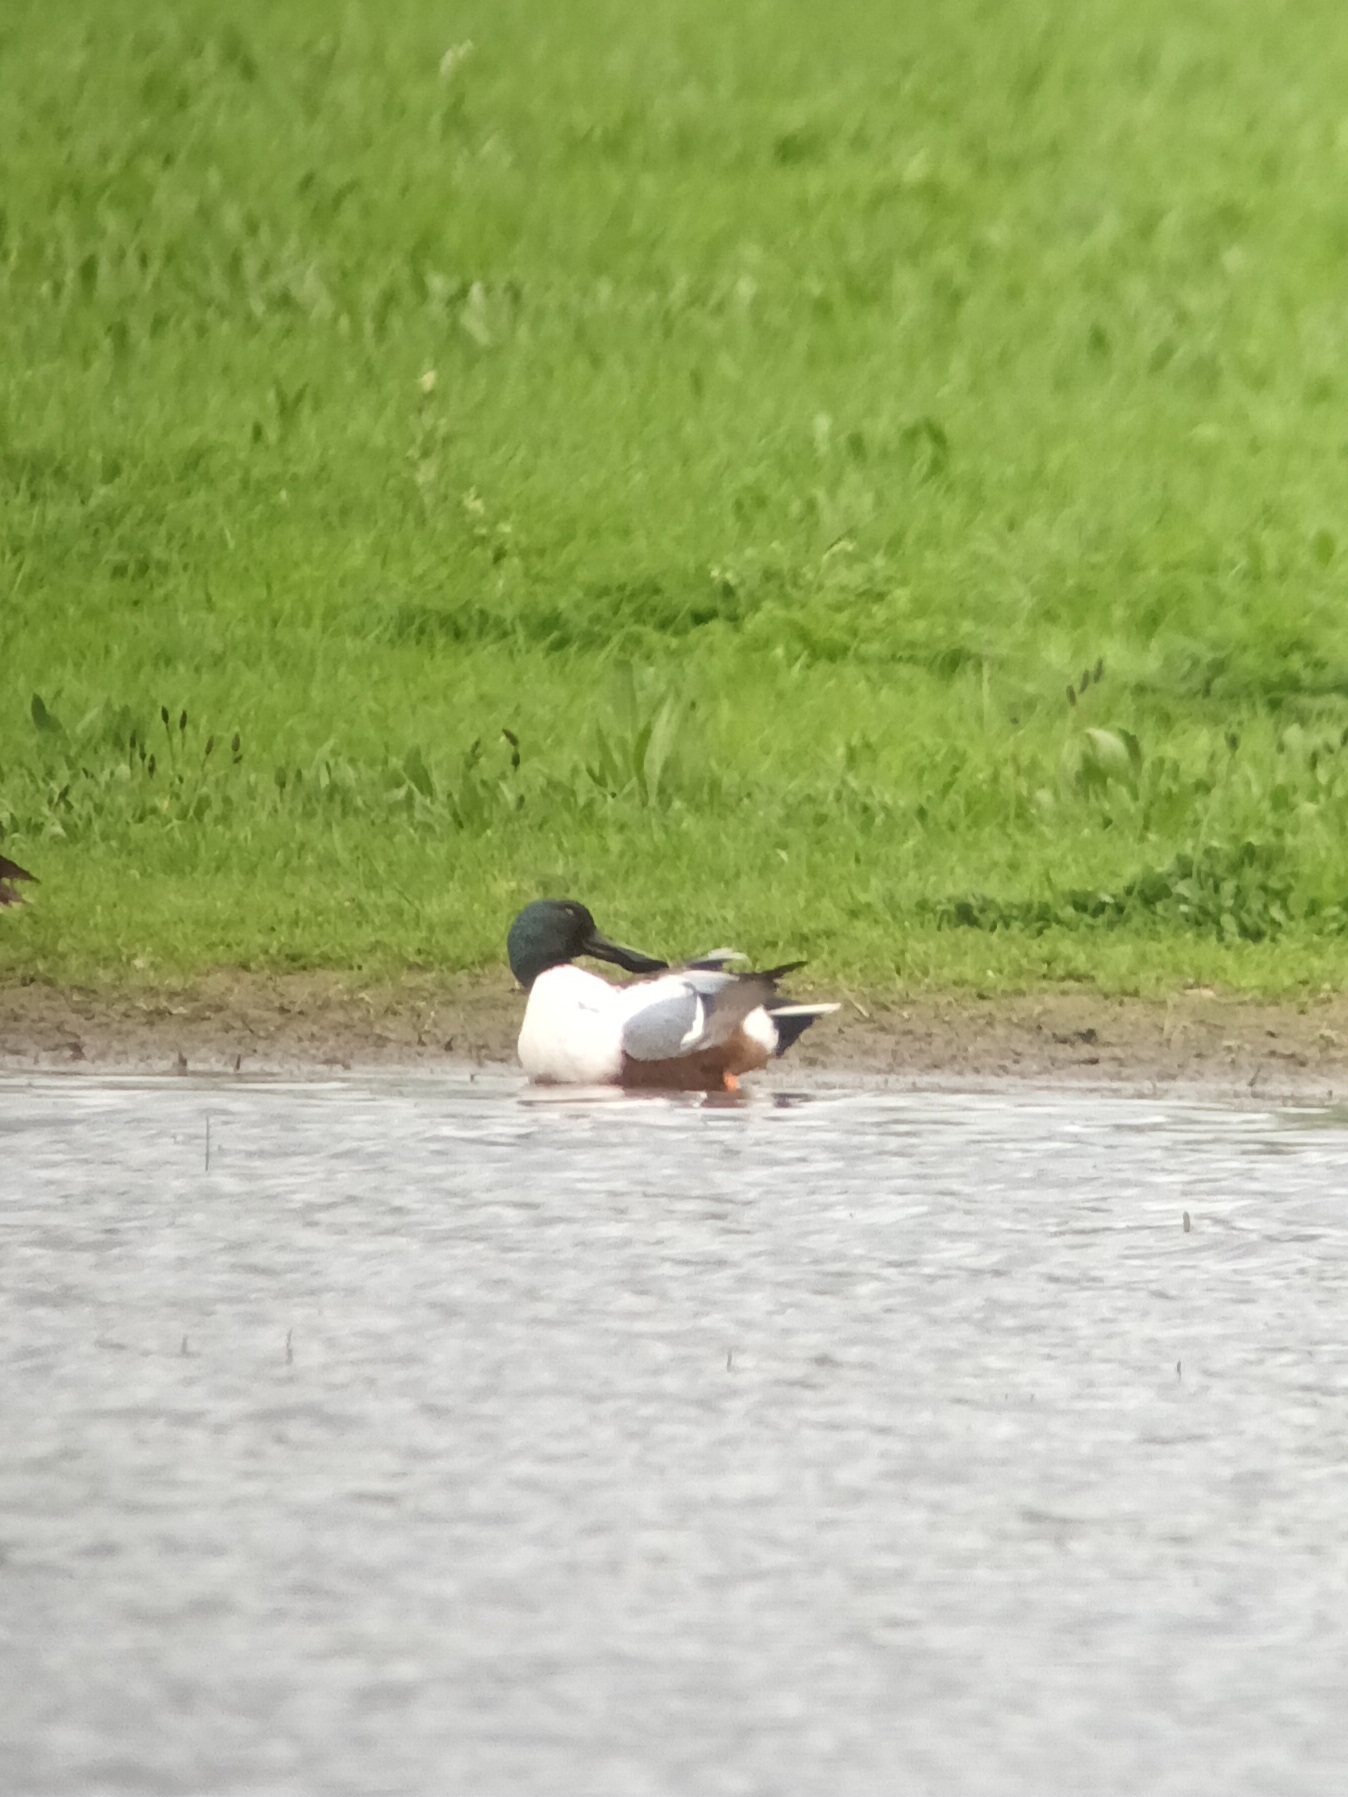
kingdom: Animalia
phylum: Chordata
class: Aves
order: Anseriformes
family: Anatidae
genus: Spatula
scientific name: Spatula clypeata
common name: Northern shoveler
